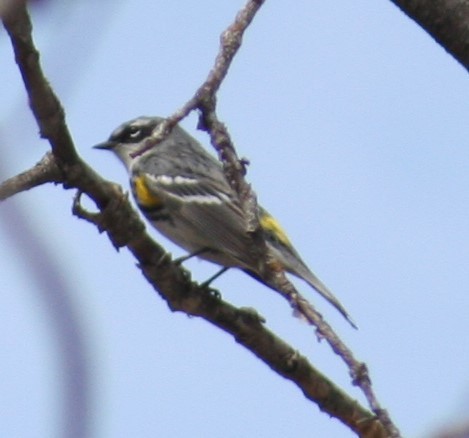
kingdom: Animalia
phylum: Chordata
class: Aves
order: Passeriformes
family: Parulidae
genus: Setophaga
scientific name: Setophaga coronata
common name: Myrtle warbler
